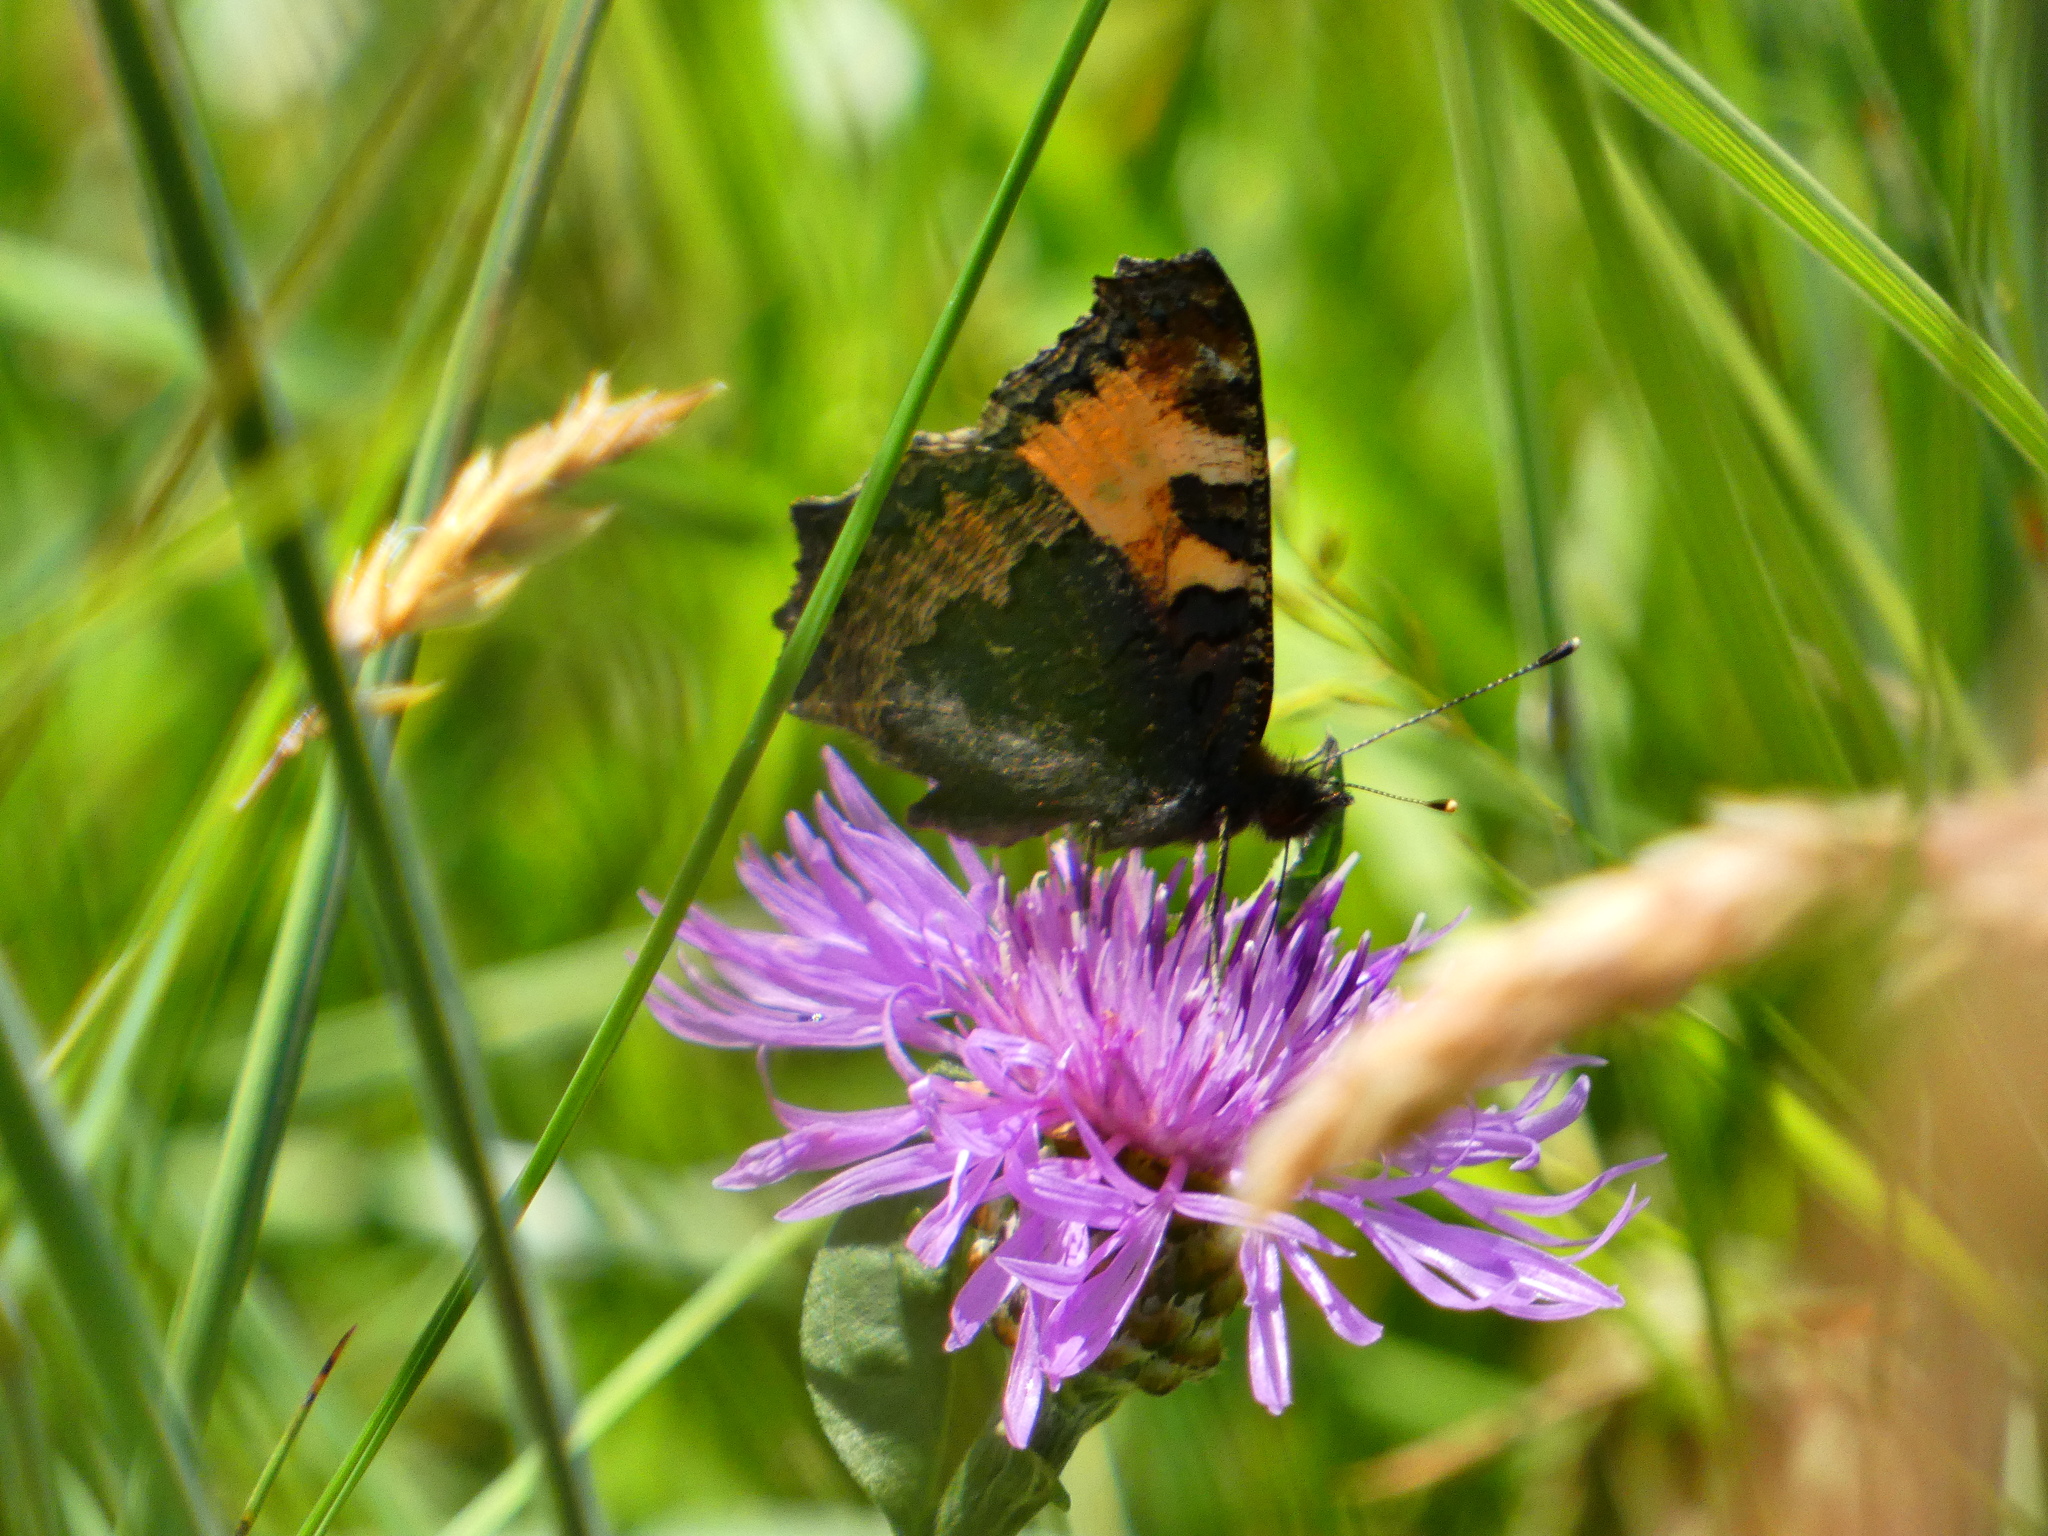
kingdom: Animalia
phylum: Arthropoda
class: Insecta
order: Lepidoptera
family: Nymphalidae
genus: Aglais
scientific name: Aglais urticae
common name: Small tortoiseshell
